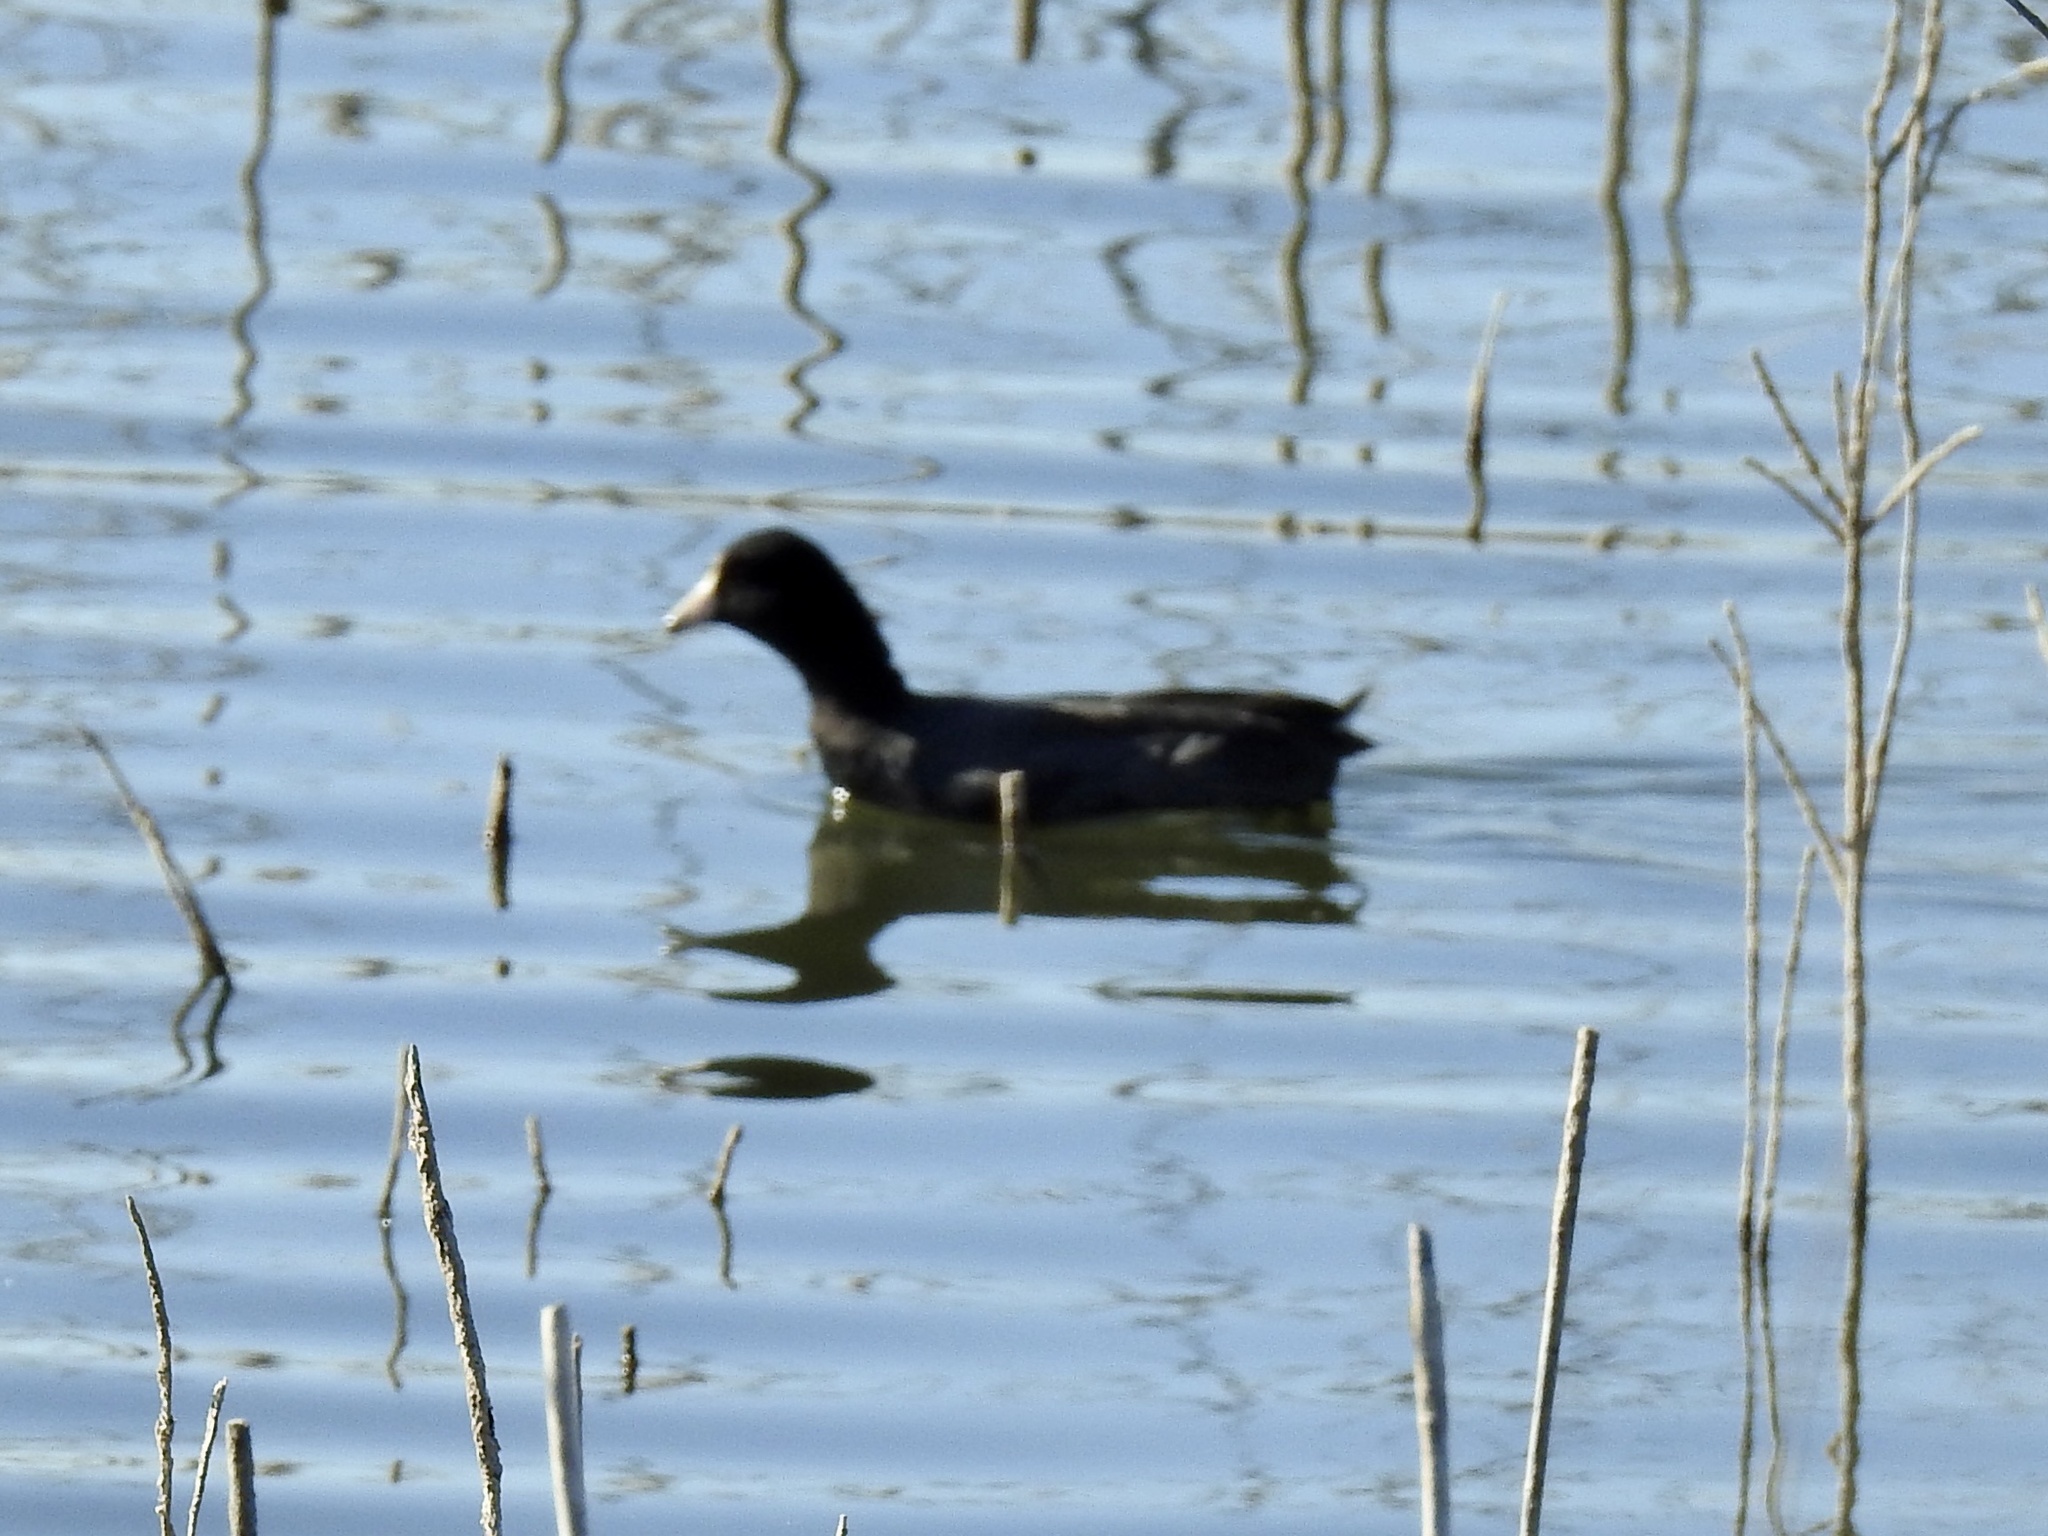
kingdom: Animalia
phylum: Chordata
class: Aves
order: Gruiformes
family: Rallidae
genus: Fulica
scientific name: Fulica americana
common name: American coot
